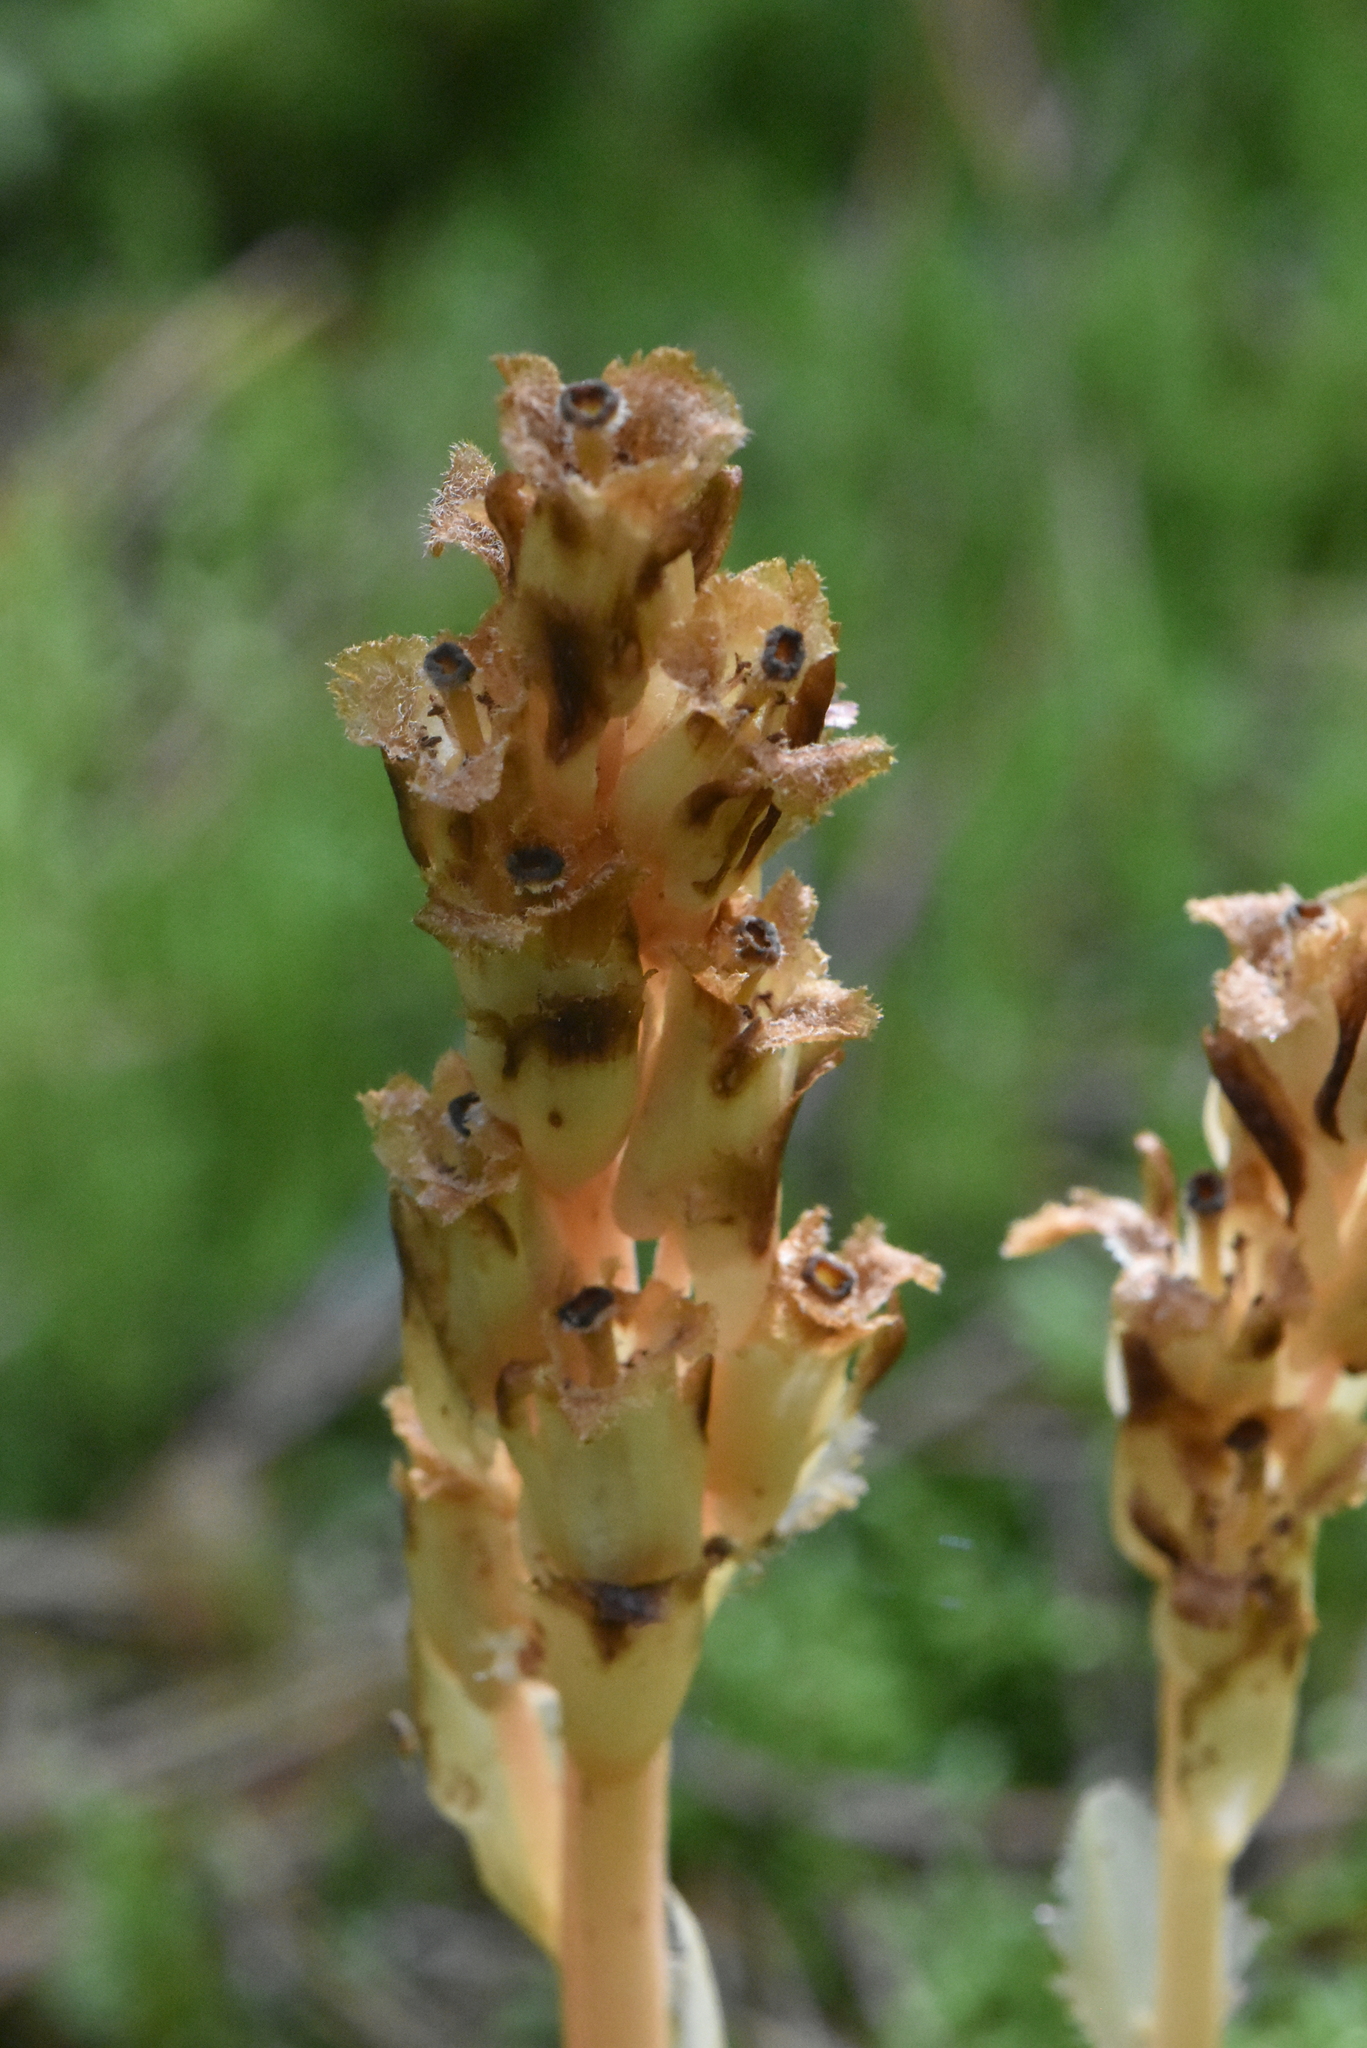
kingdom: Plantae
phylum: Tracheophyta
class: Magnoliopsida
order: Ericales
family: Ericaceae
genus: Hypopitys
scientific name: Hypopitys monotropa
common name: Yellow bird's-nest
